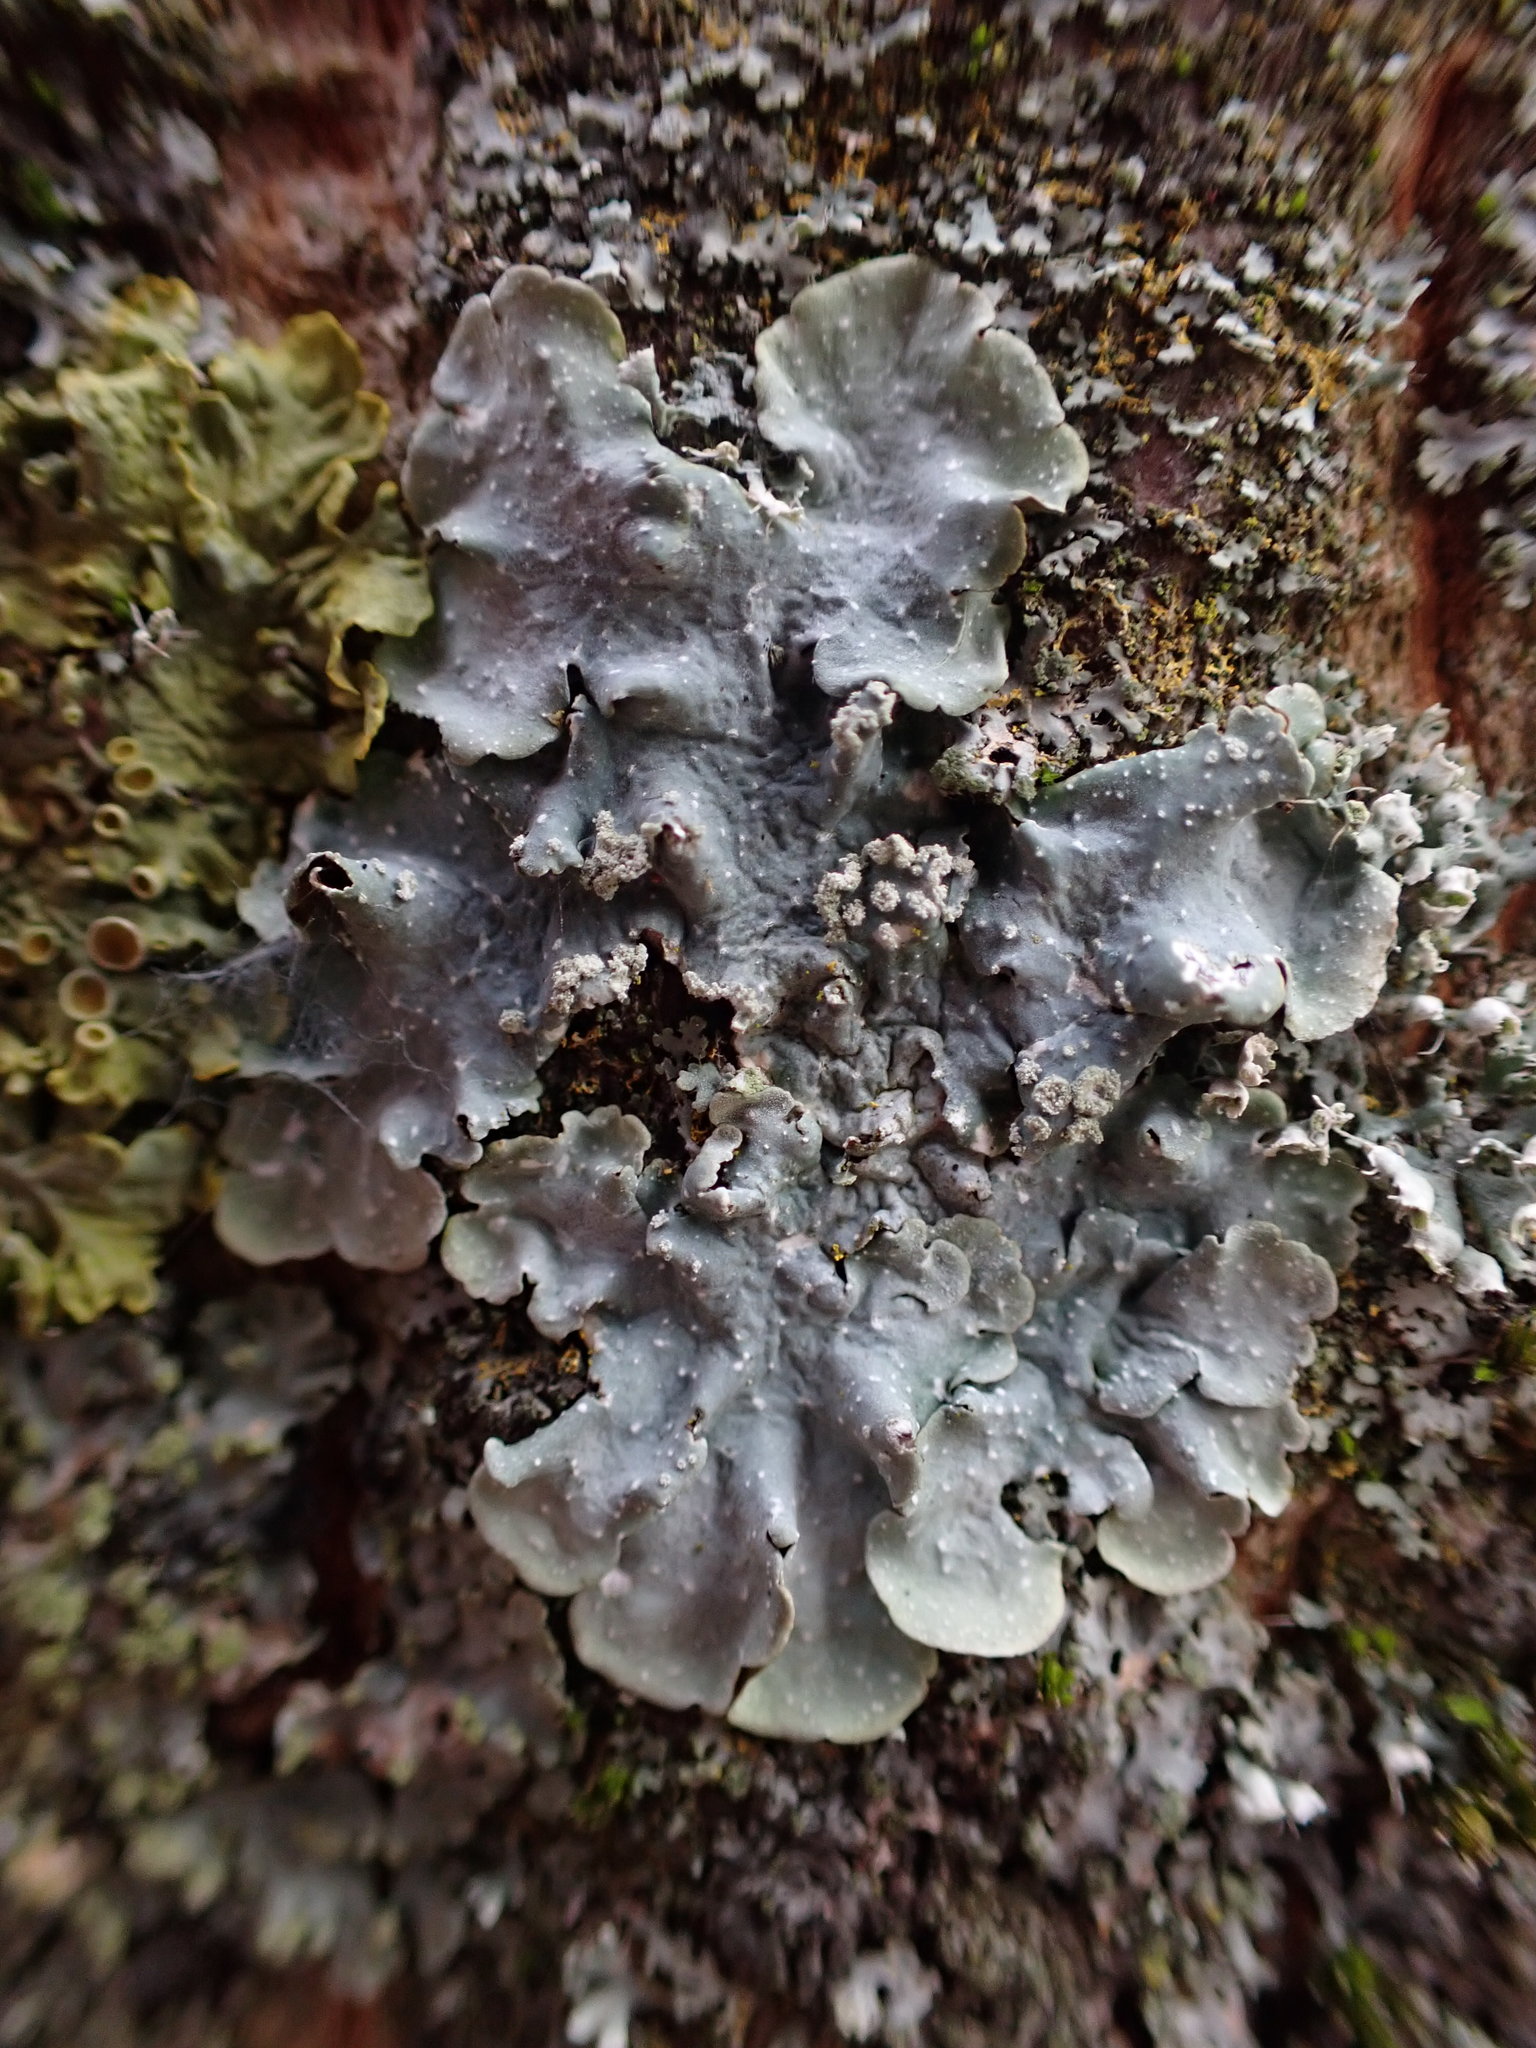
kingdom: Fungi
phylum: Ascomycota
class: Lecanoromycetes
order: Lecanorales
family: Parmeliaceae
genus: Punctelia
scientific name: Punctelia
